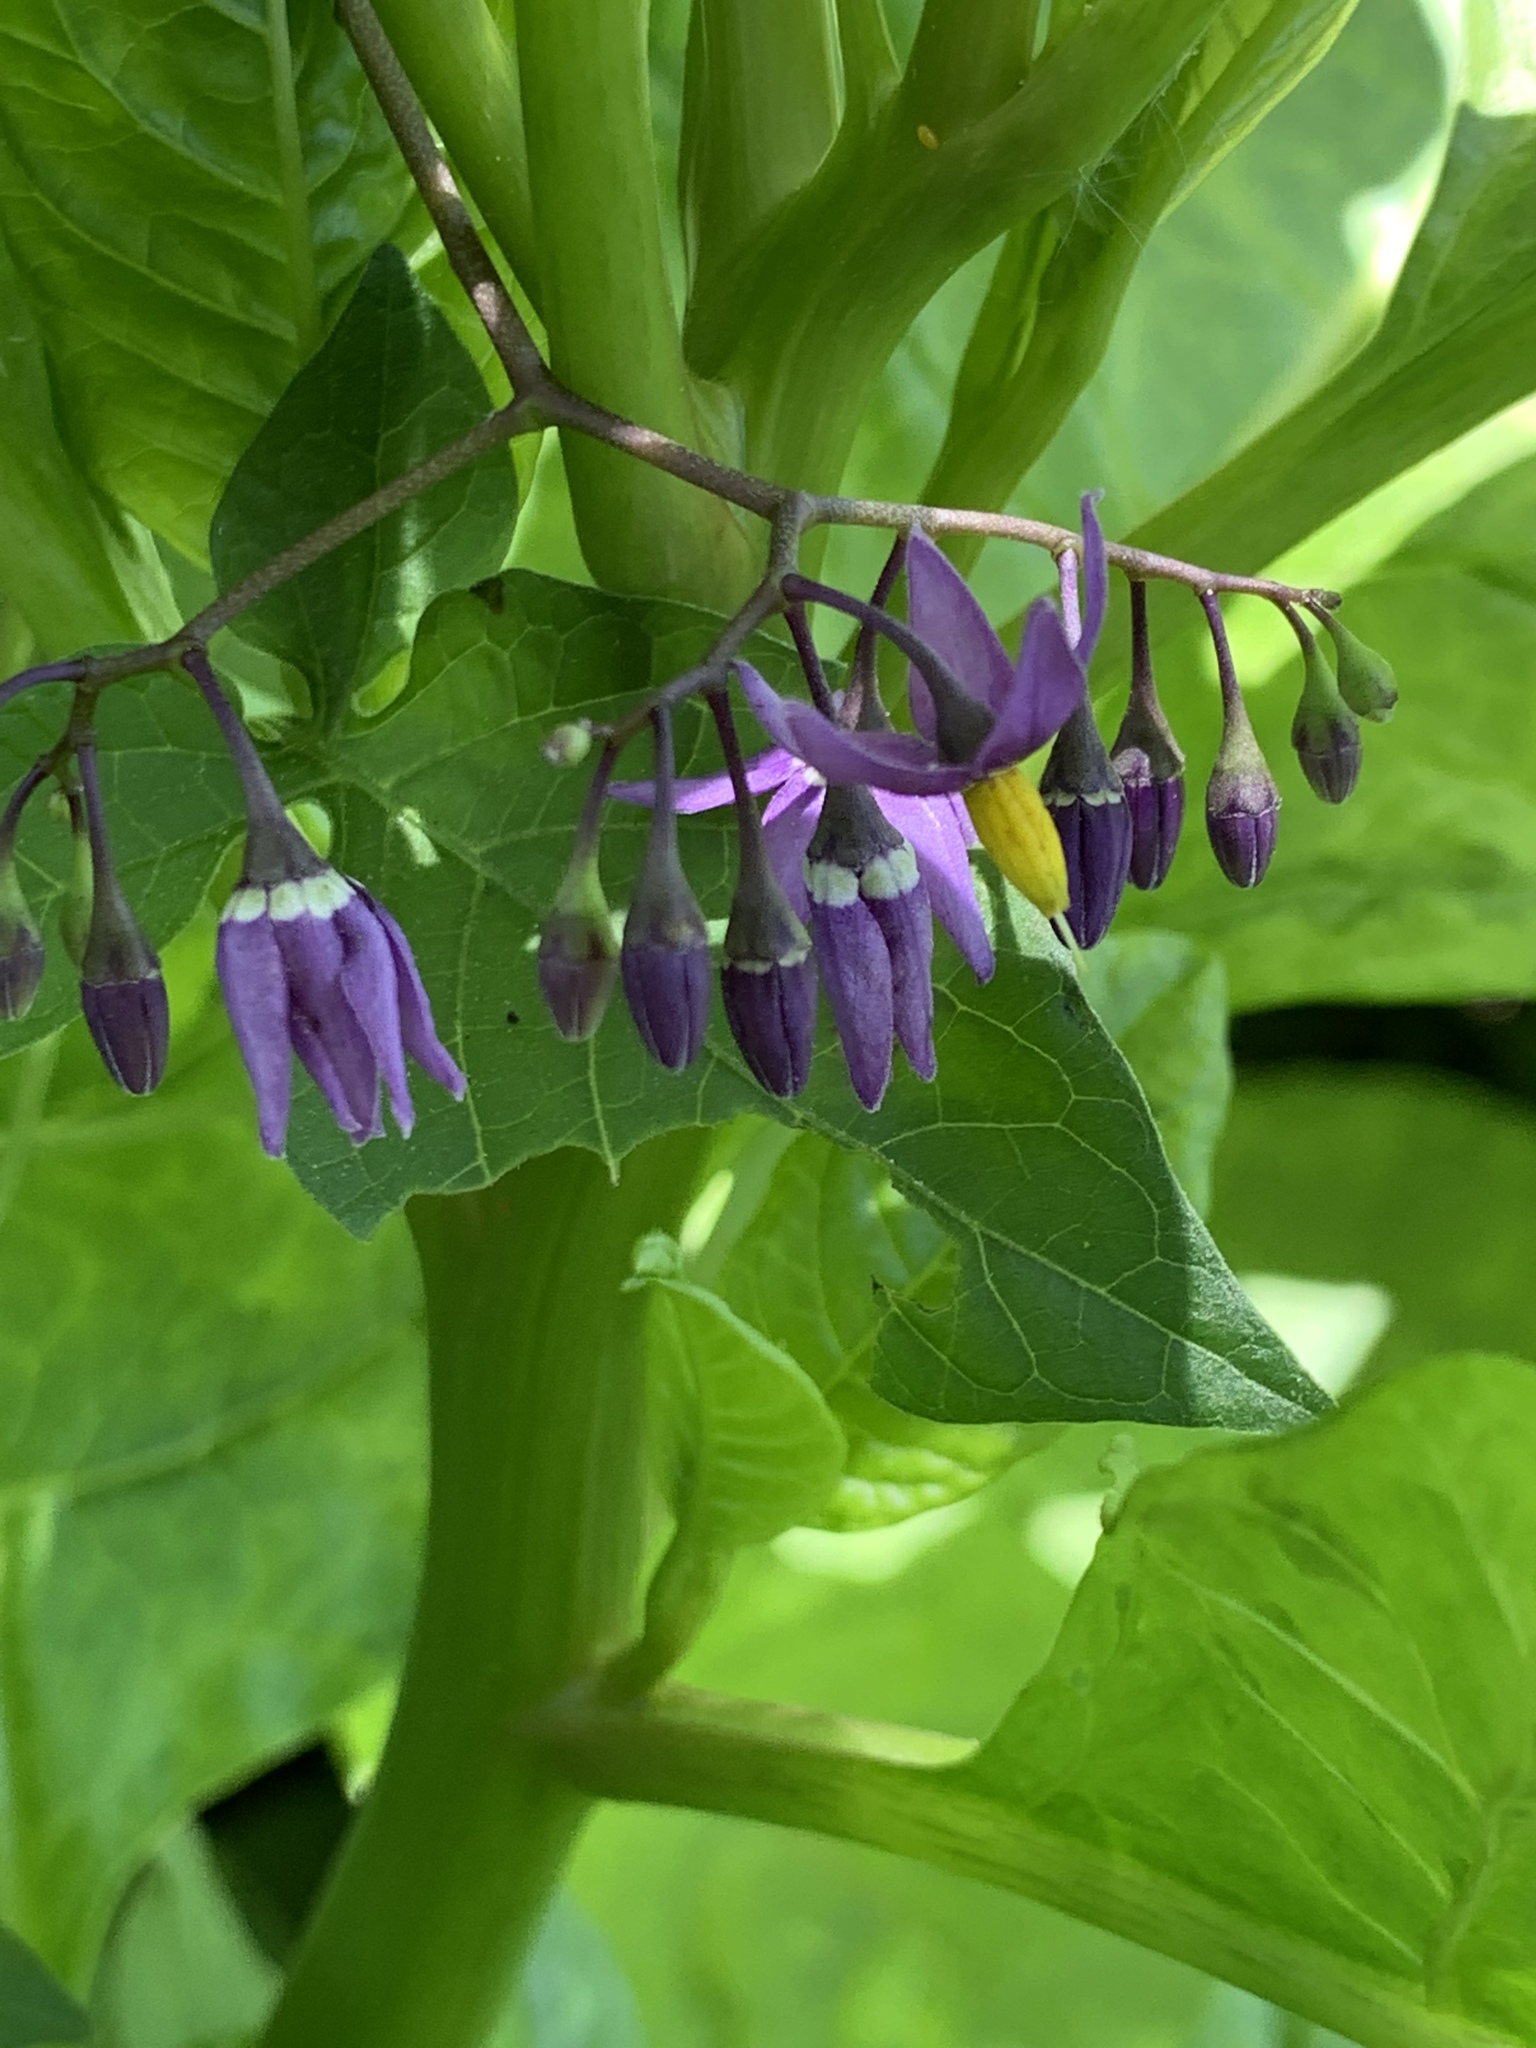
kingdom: Plantae
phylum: Tracheophyta
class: Magnoliopsida
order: Solanales
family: Solanaceae
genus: Solanum
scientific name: Solanum dulcamara
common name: Climbing nightshade
